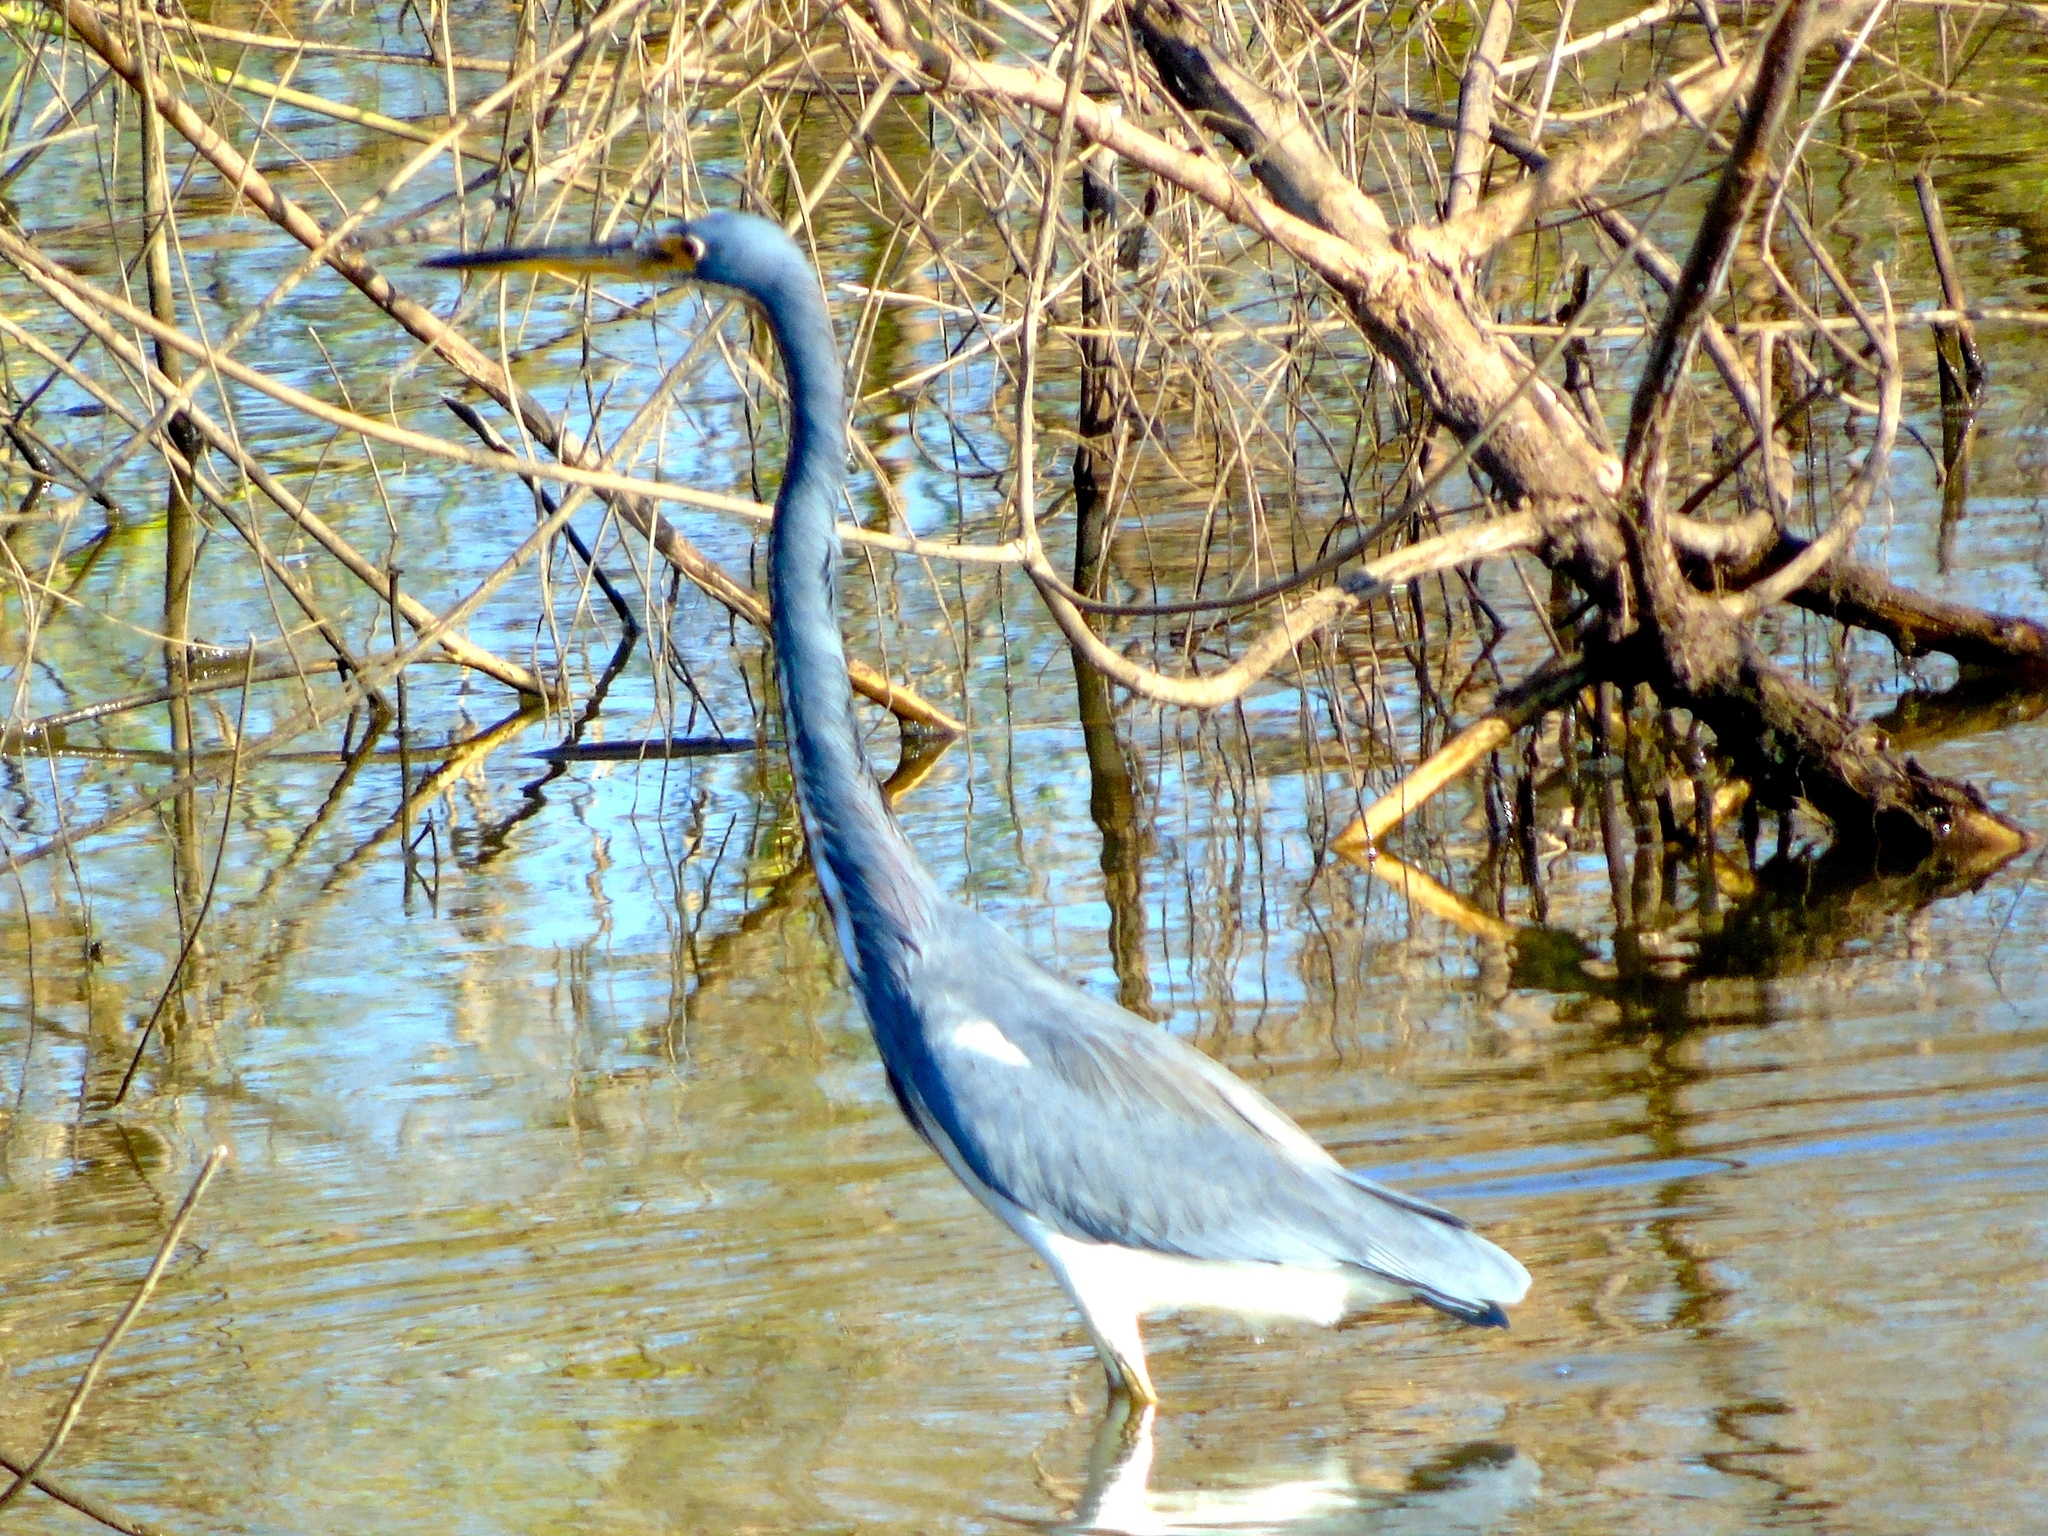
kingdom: Animalia
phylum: Chordata
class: Aves
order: Pelecaniformes
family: Ardeidae
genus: Egretta
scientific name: Egretta tricolor
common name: Tricolored heron
